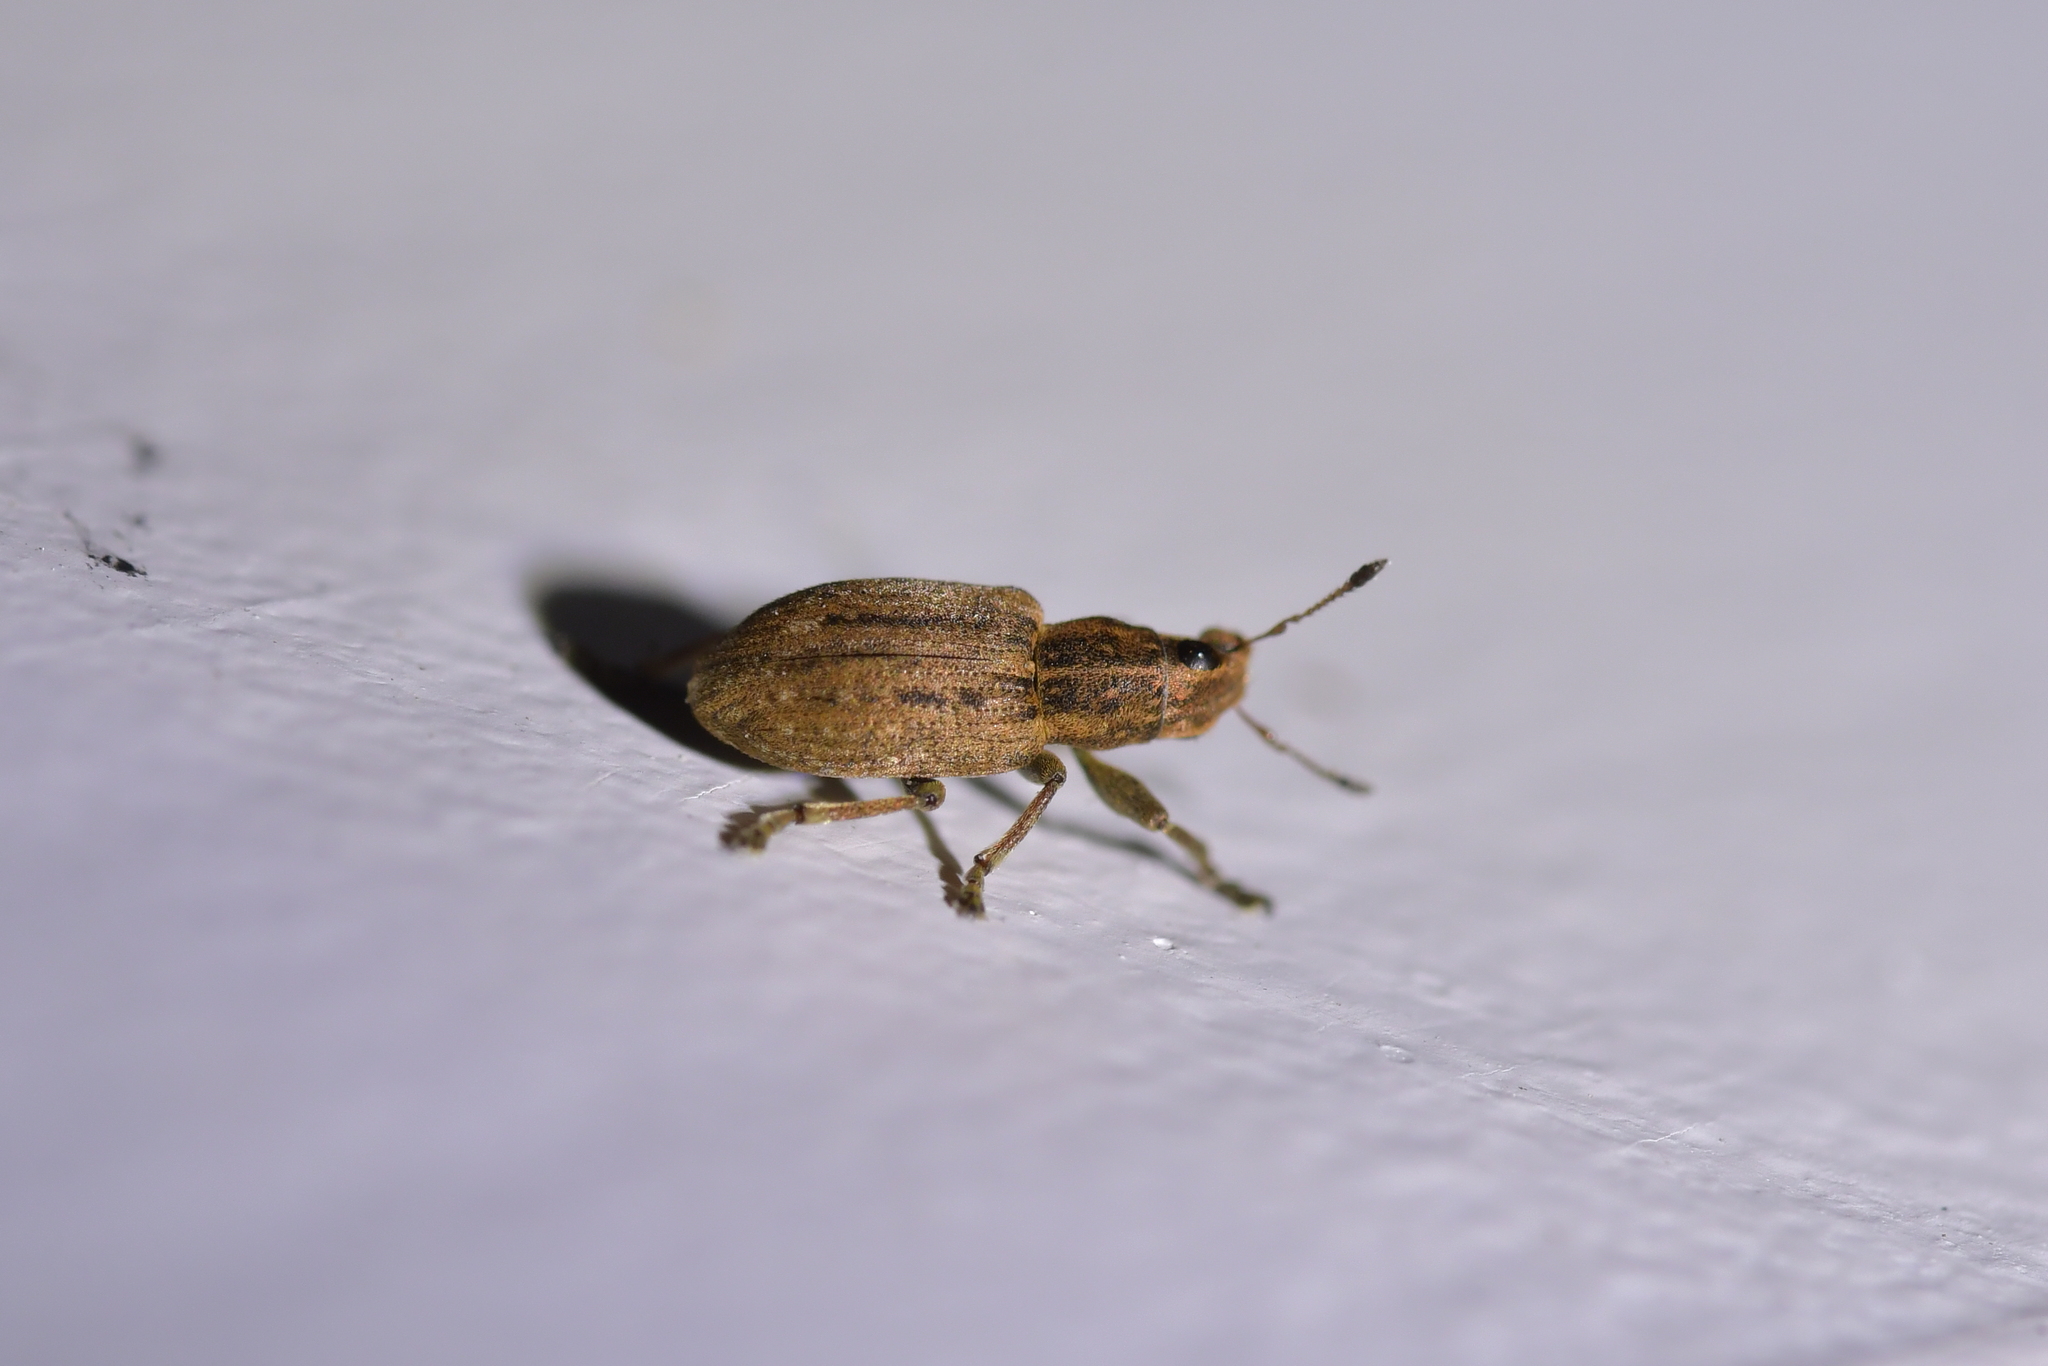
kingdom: Animalia
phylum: Arthropoda
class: Insecta
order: Coleoptera
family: Curculionidae
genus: Sitona
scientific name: Sitona obsoletus
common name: Weevil
